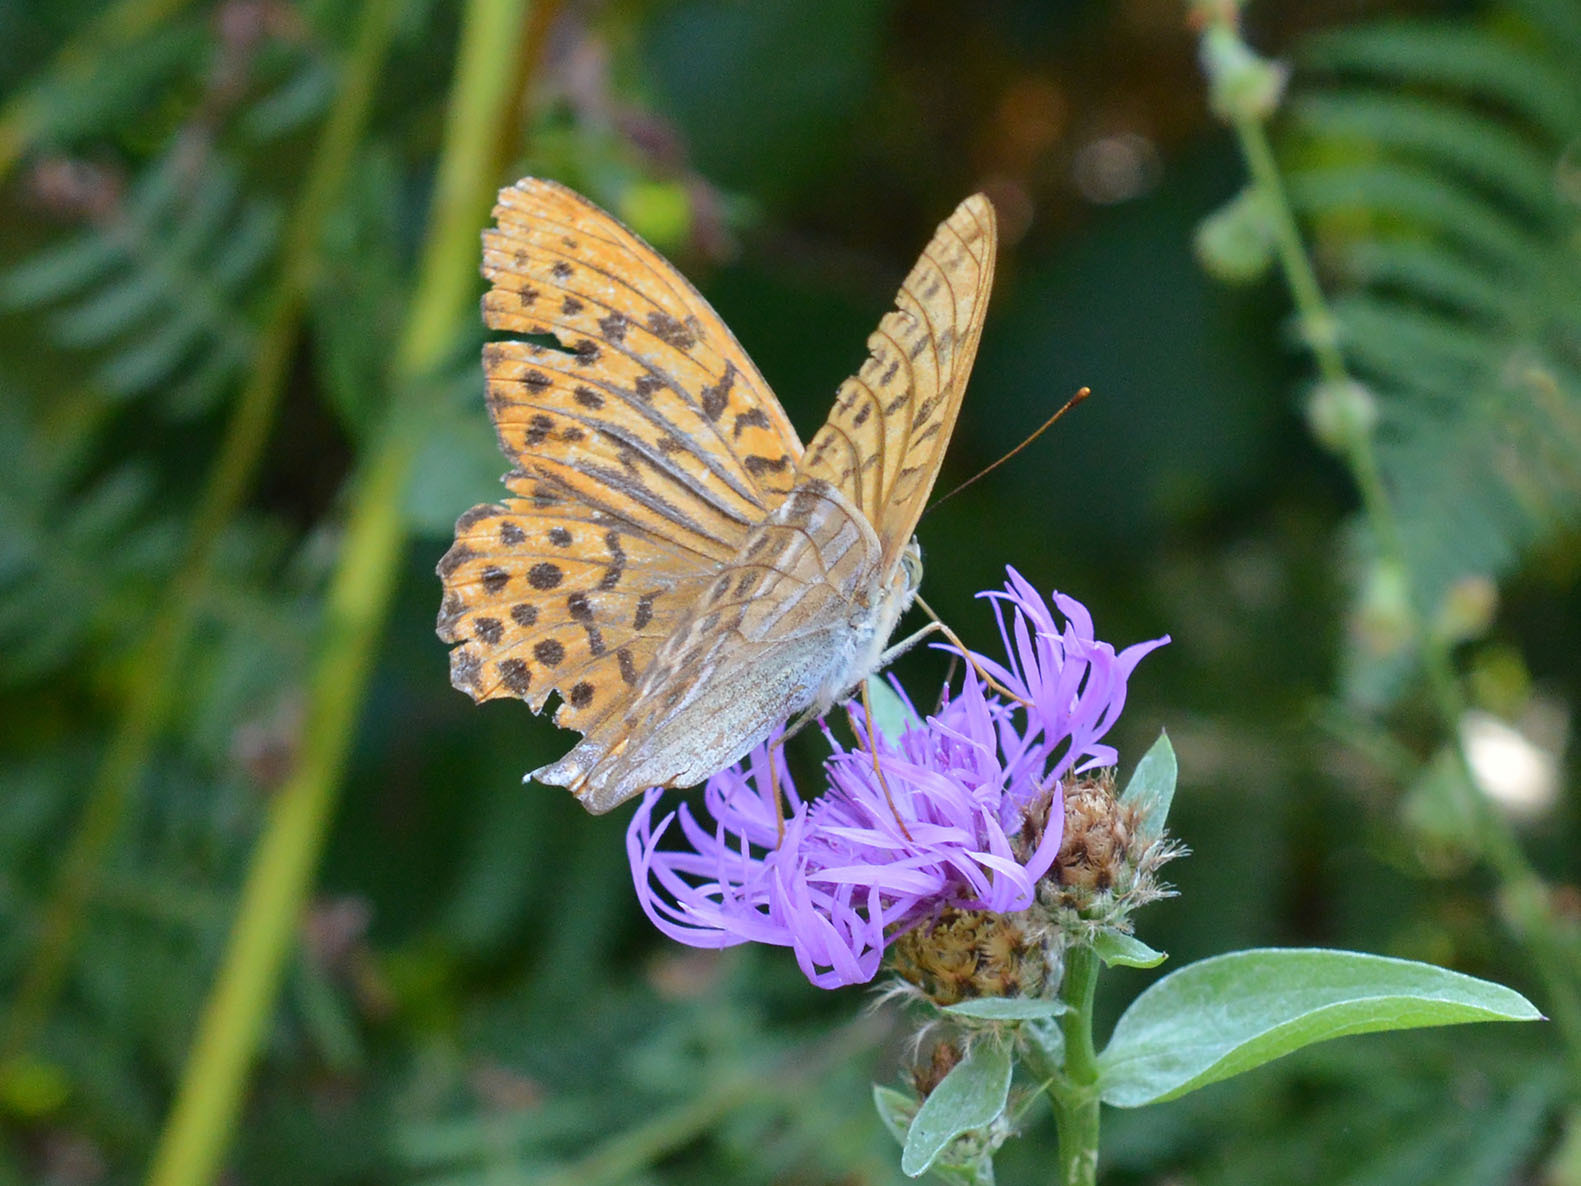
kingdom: Animalia
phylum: Arthropoda
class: Insecta
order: Lepidoptera
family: Nymphalidae
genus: Argynnis
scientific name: Argynnis paphia
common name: Silver-washed fritillary
